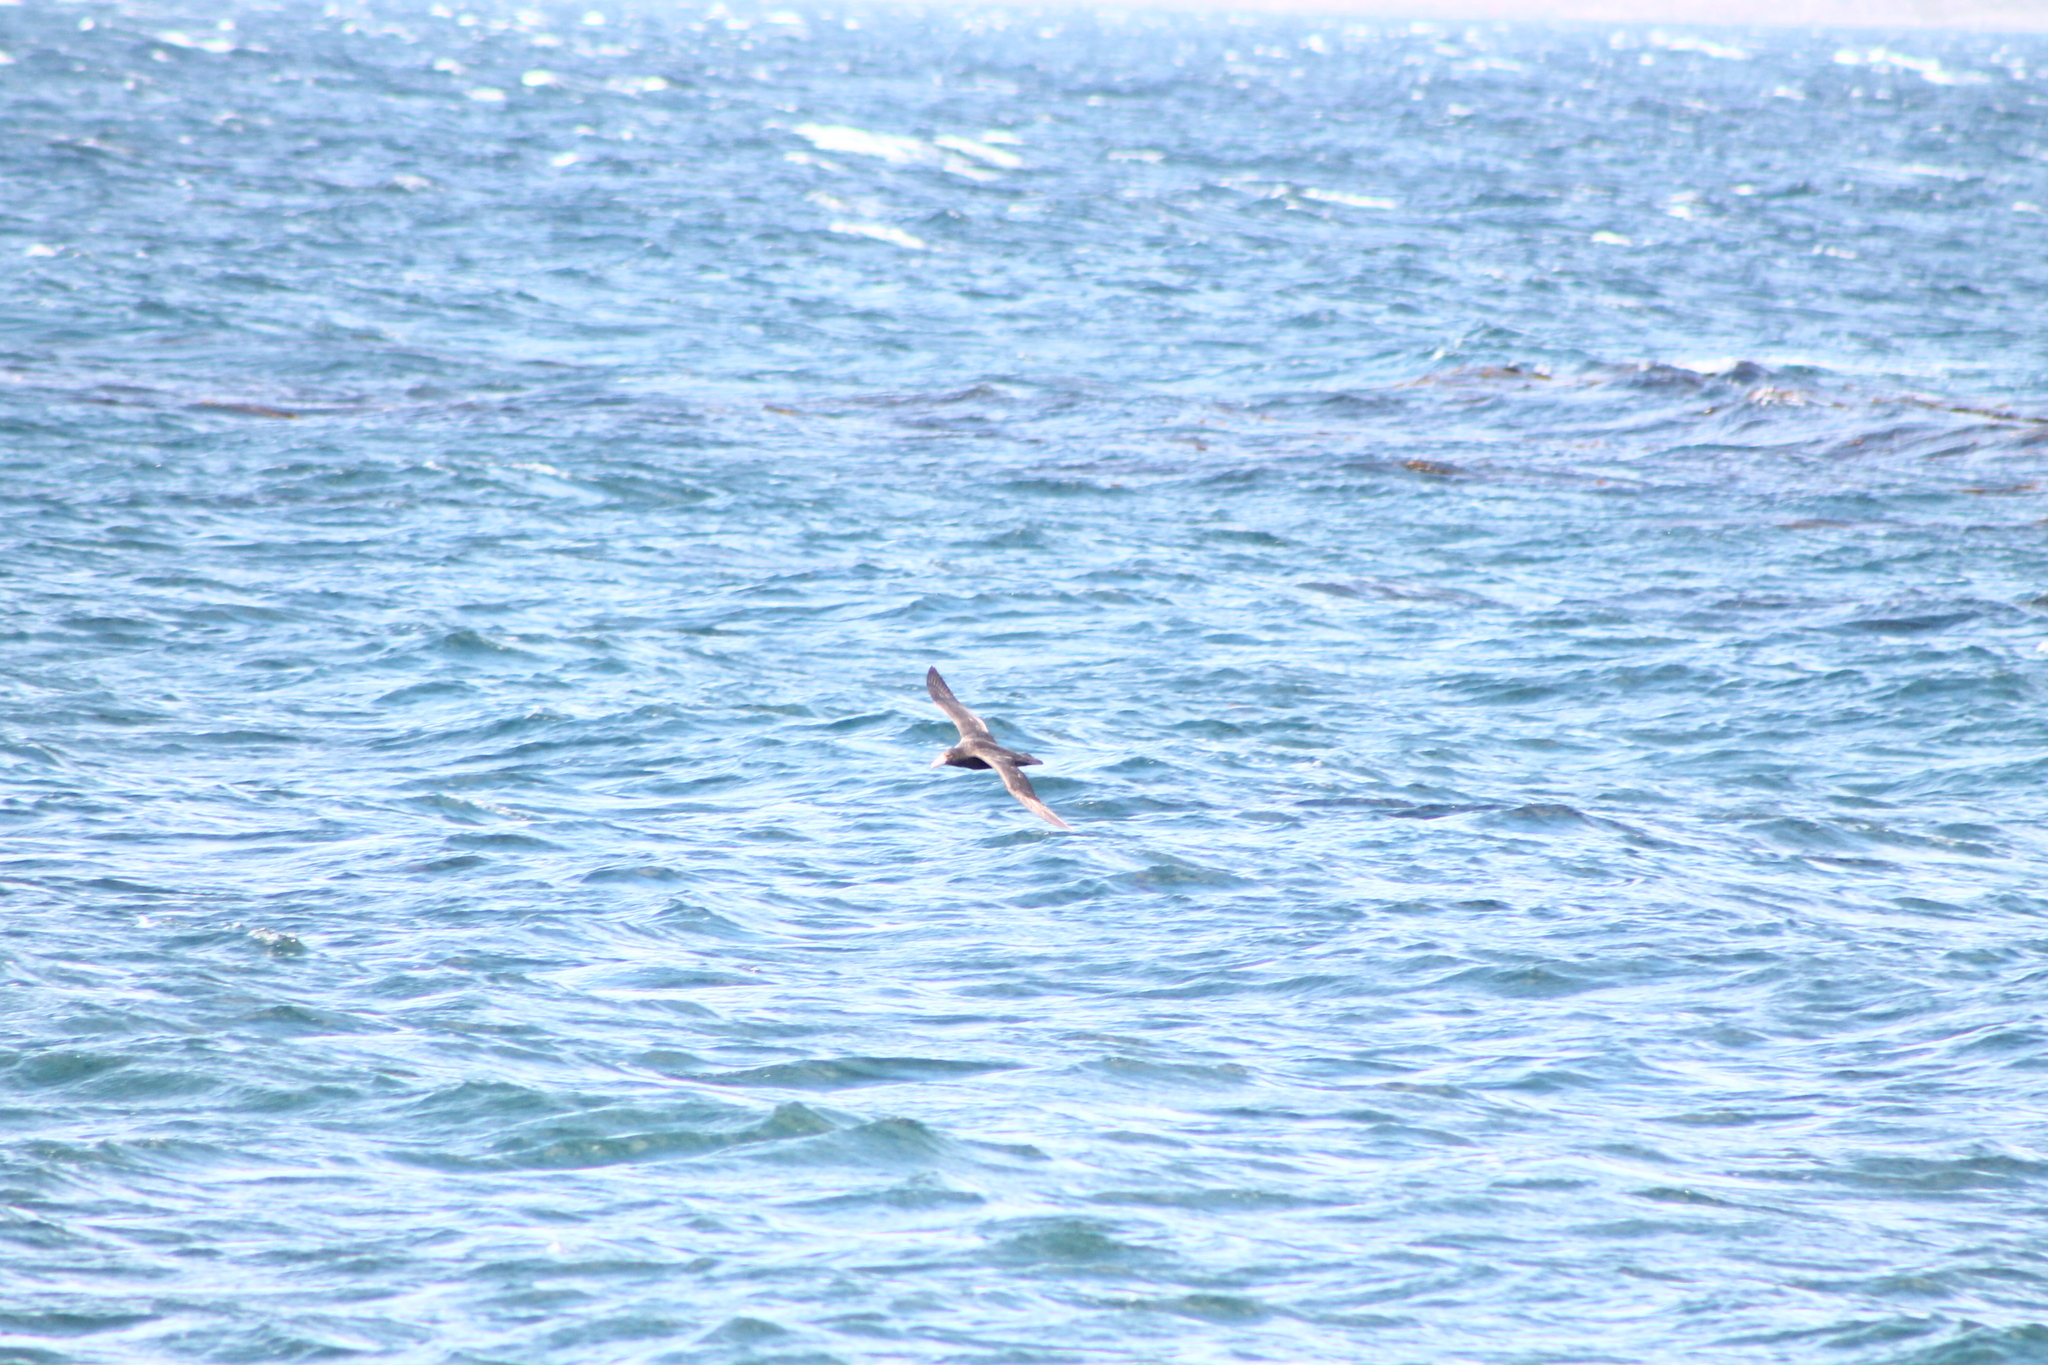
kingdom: Animalia
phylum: Chordata
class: Aves
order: Procellariiformes
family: Procellariidae
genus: Macronectes
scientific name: Macronectes giganteus
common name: Southern giant petrel
